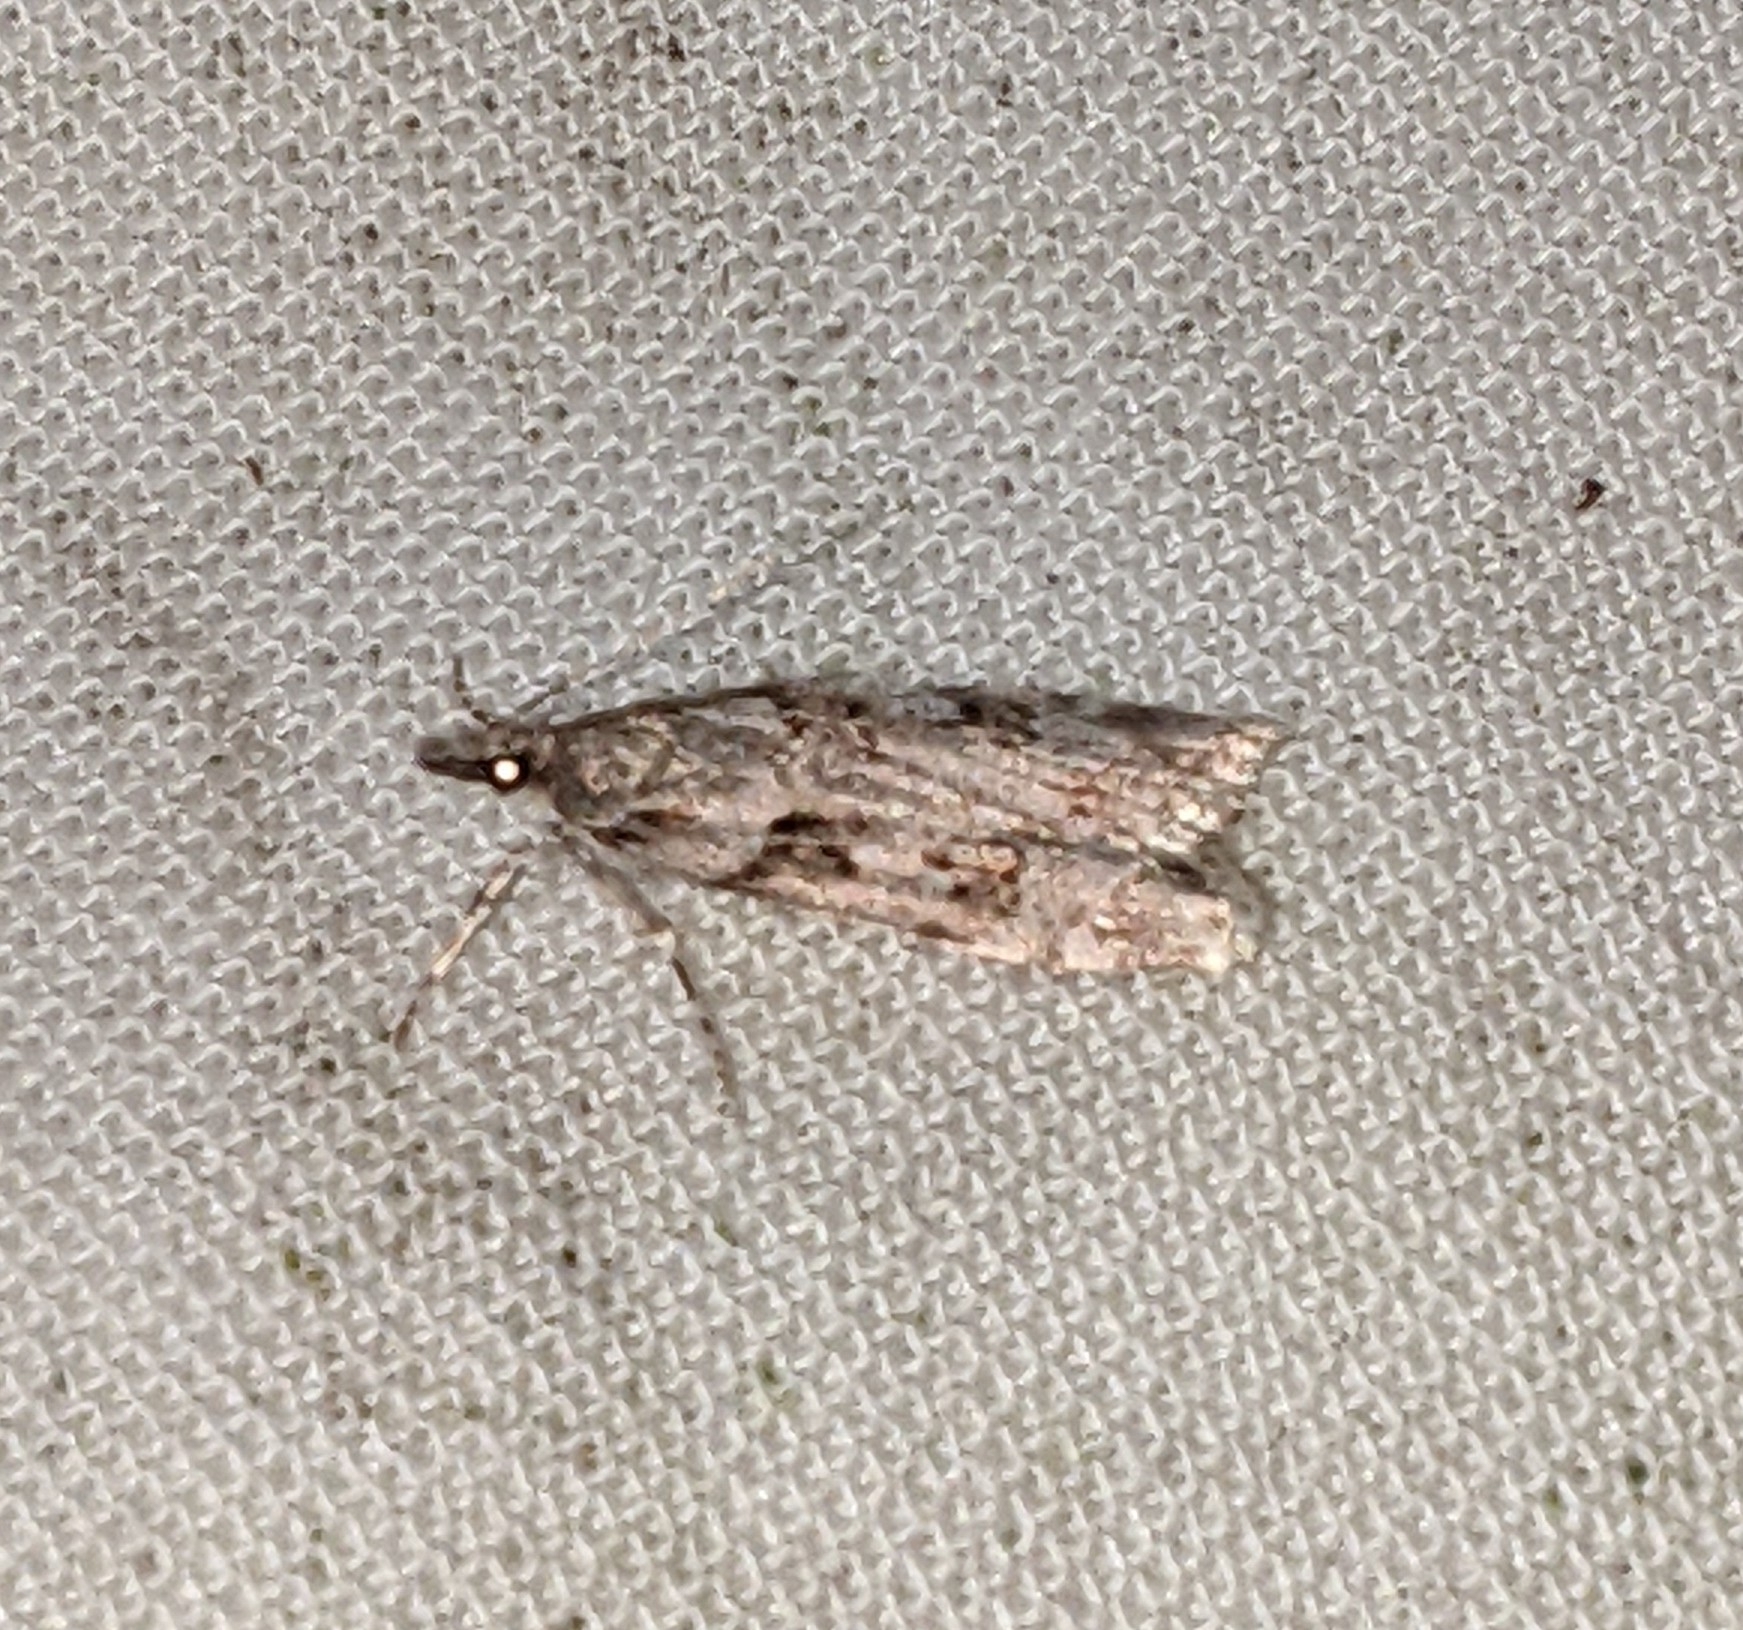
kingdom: Animalia
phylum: Arthropoda
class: Insecta
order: Lepidoptera
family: Crambidae
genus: Scoparia
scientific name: Scoparia biplagialis
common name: Double-striped scoparia moth
